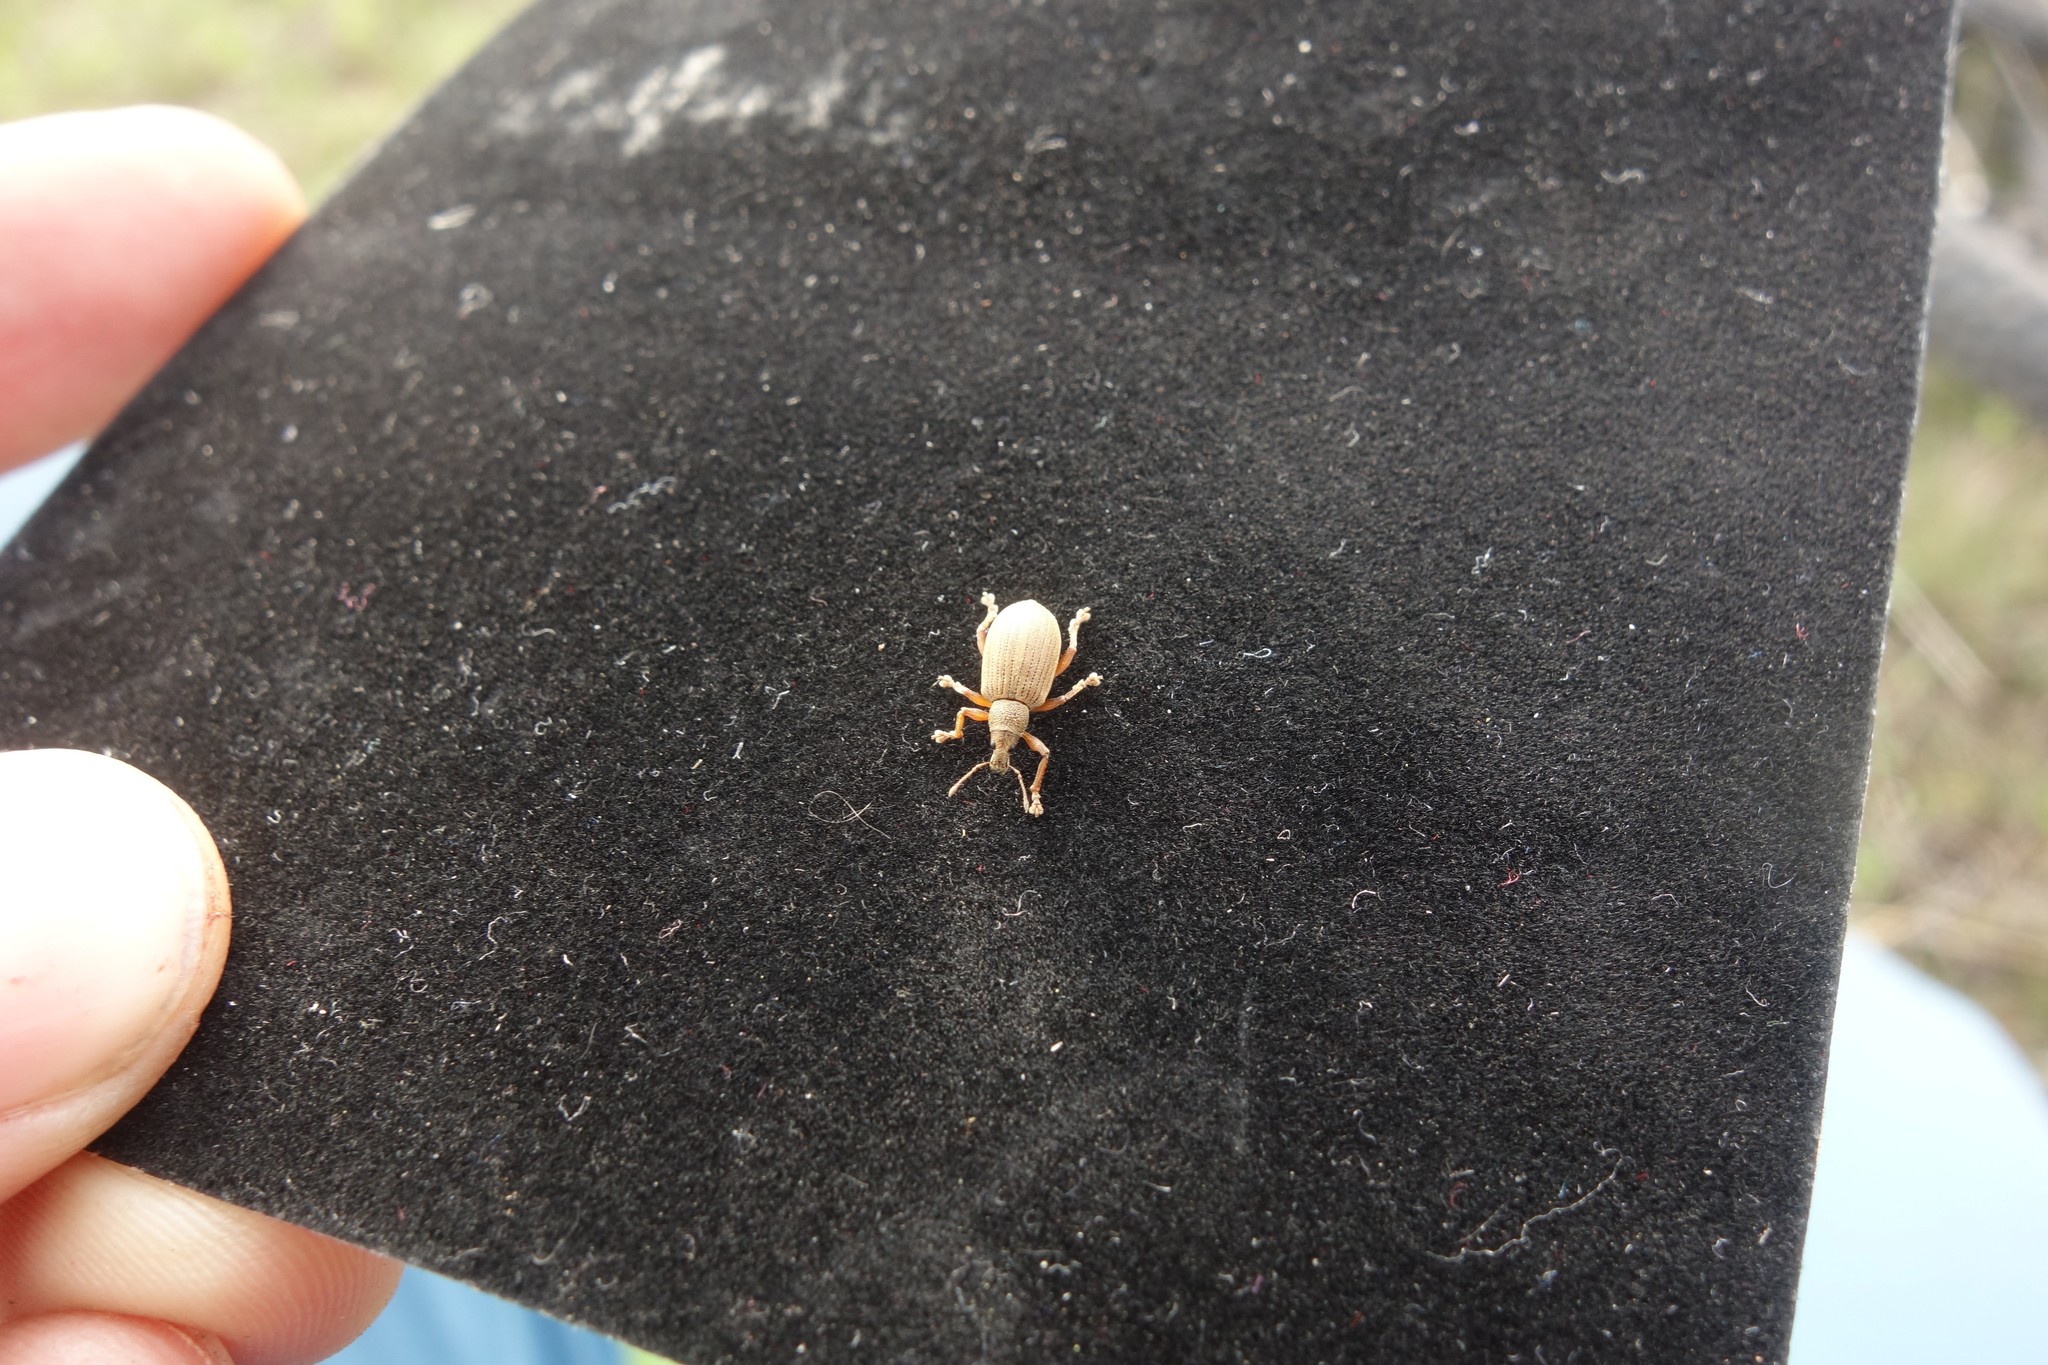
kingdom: Animalia
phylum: Arthropoda
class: Insecta
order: Coleoptera
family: Curculionidae
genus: Polydrusus
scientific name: Polydrusus mollis
